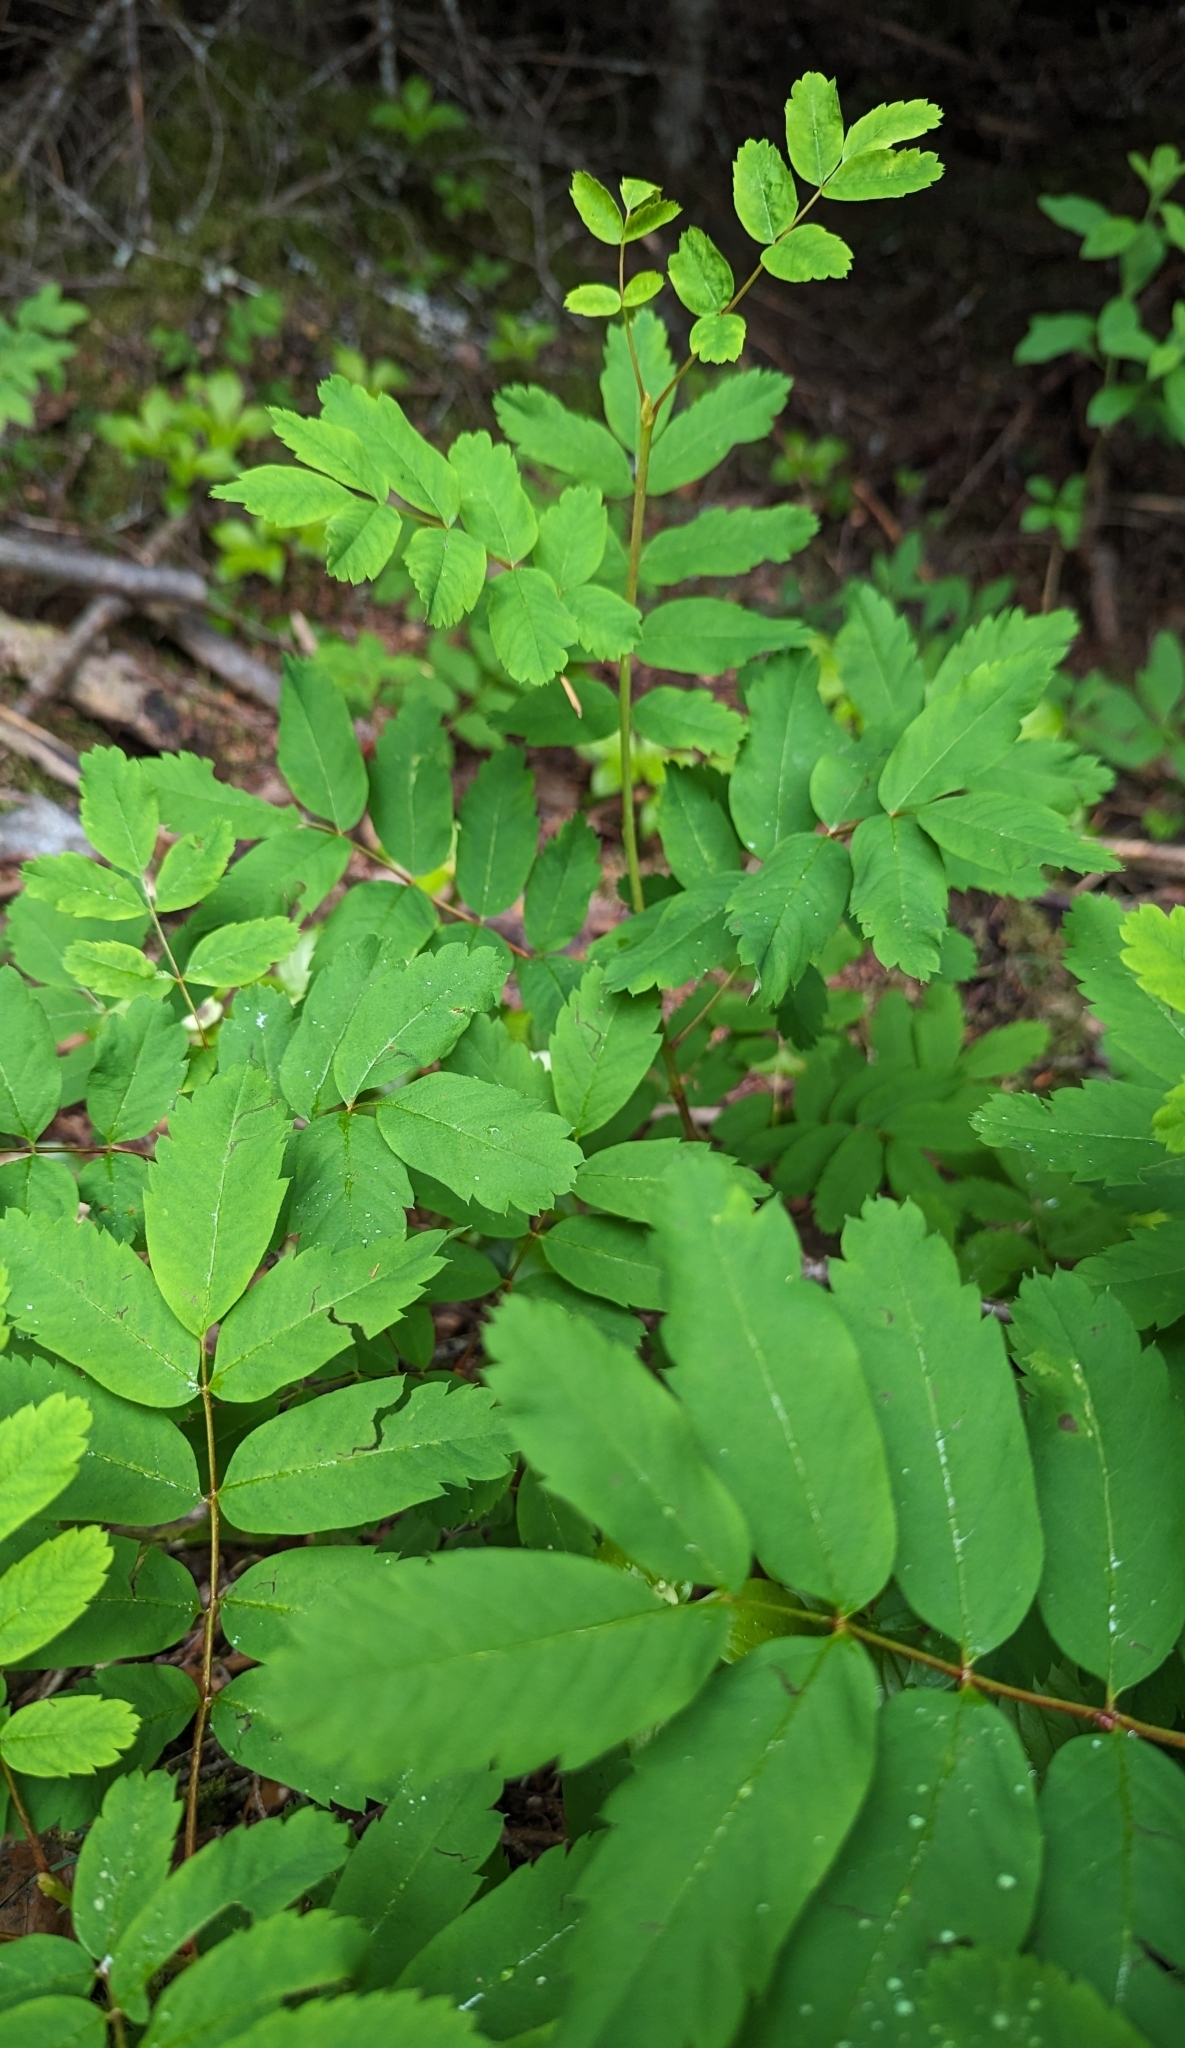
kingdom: Plantae
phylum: Tracheophyta
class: Magnoliopsida
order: Rosales
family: Rosaceae
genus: Sorbus
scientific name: Sorbus sitchensis
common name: Sitka mountain-ash
